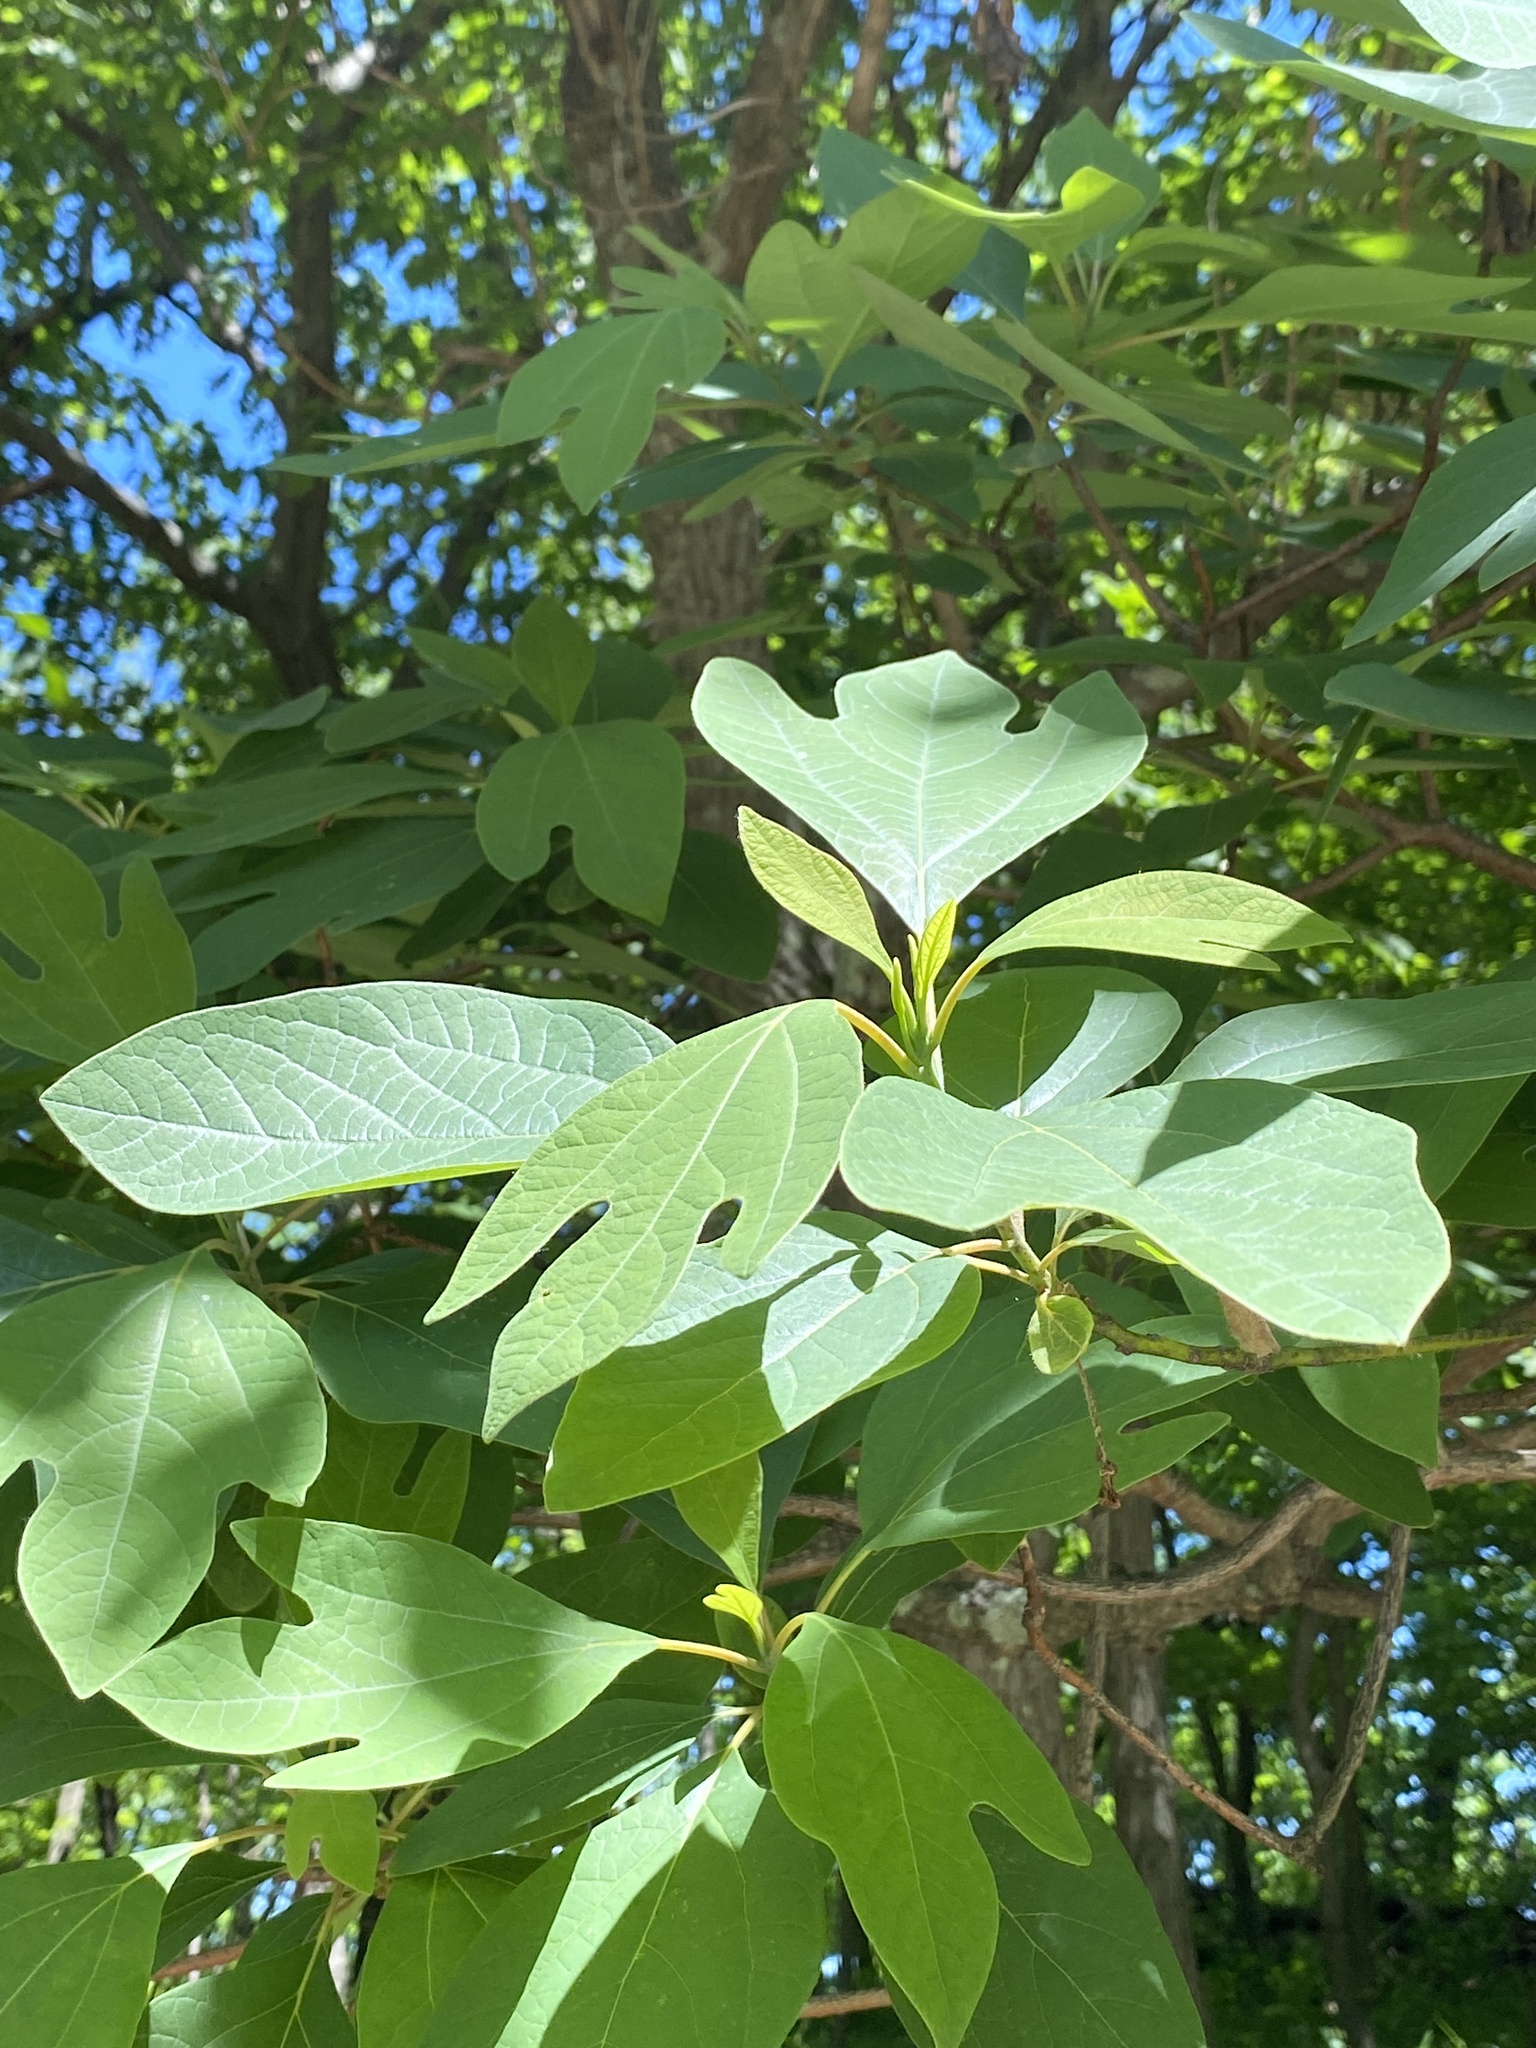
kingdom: Plantae
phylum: Tracheophyta
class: Magnoliopsida
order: Laurales
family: Lauraceae
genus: Sassafras
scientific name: Sassafras albidum
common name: Sassafras
